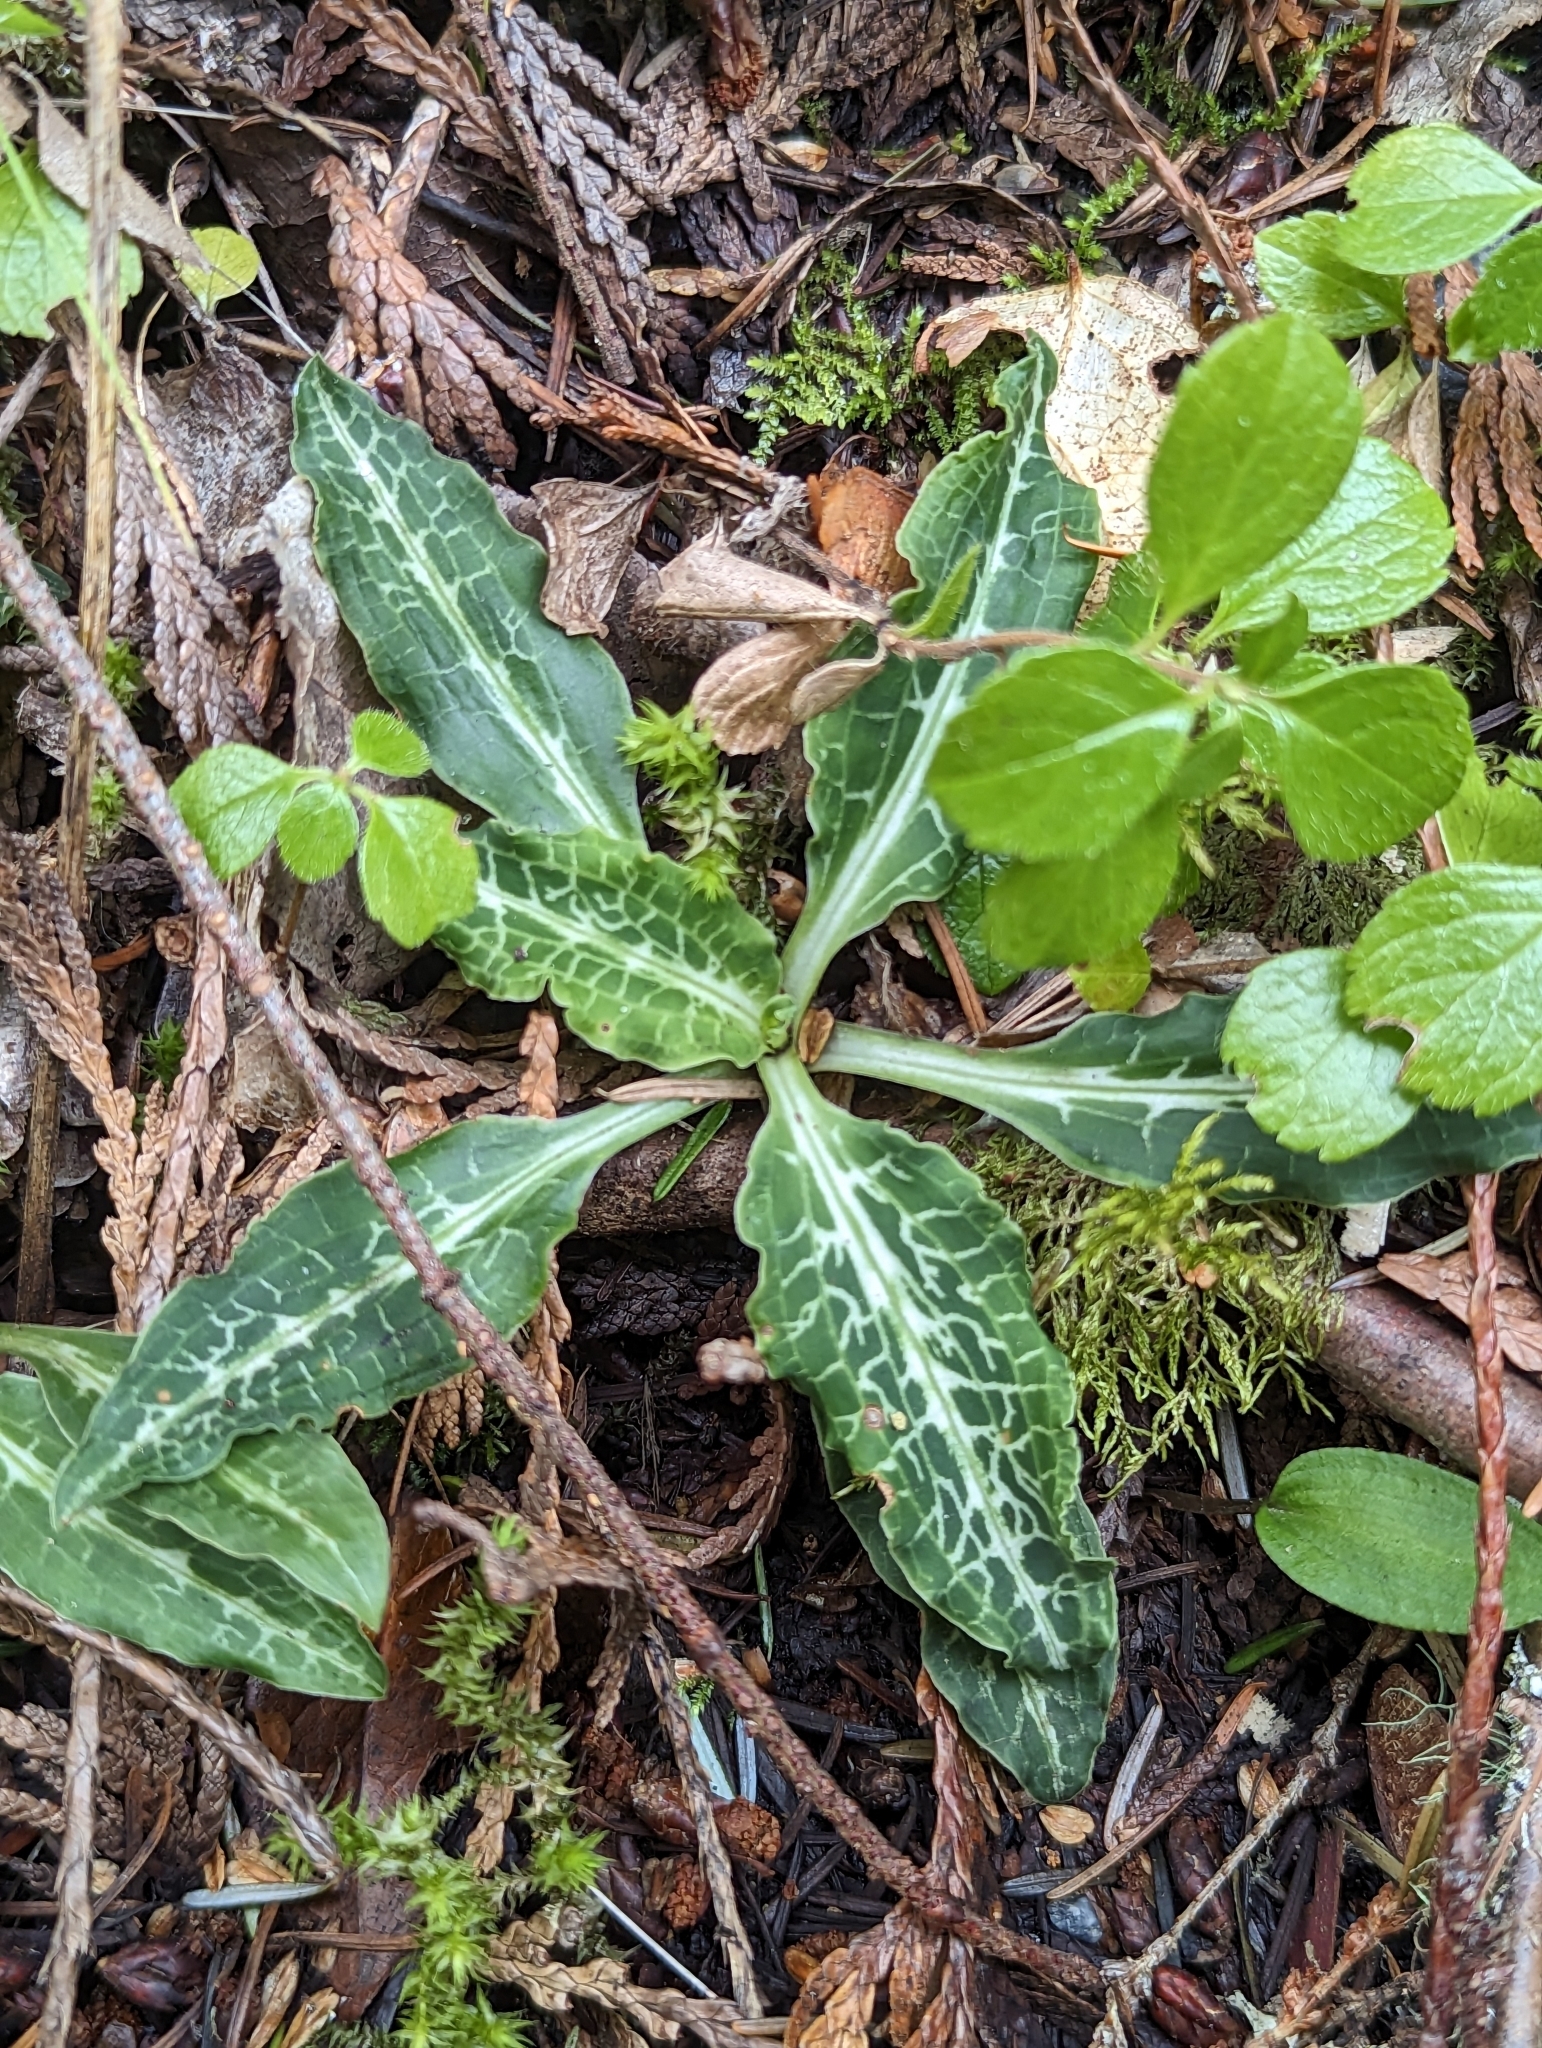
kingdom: Plantae
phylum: Tracheophyta
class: Liliopsida
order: Asparagales
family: Orchidaceae
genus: Goodyera
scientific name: Goodyera oblongifolia
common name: Giant rattlesnake-plantain
